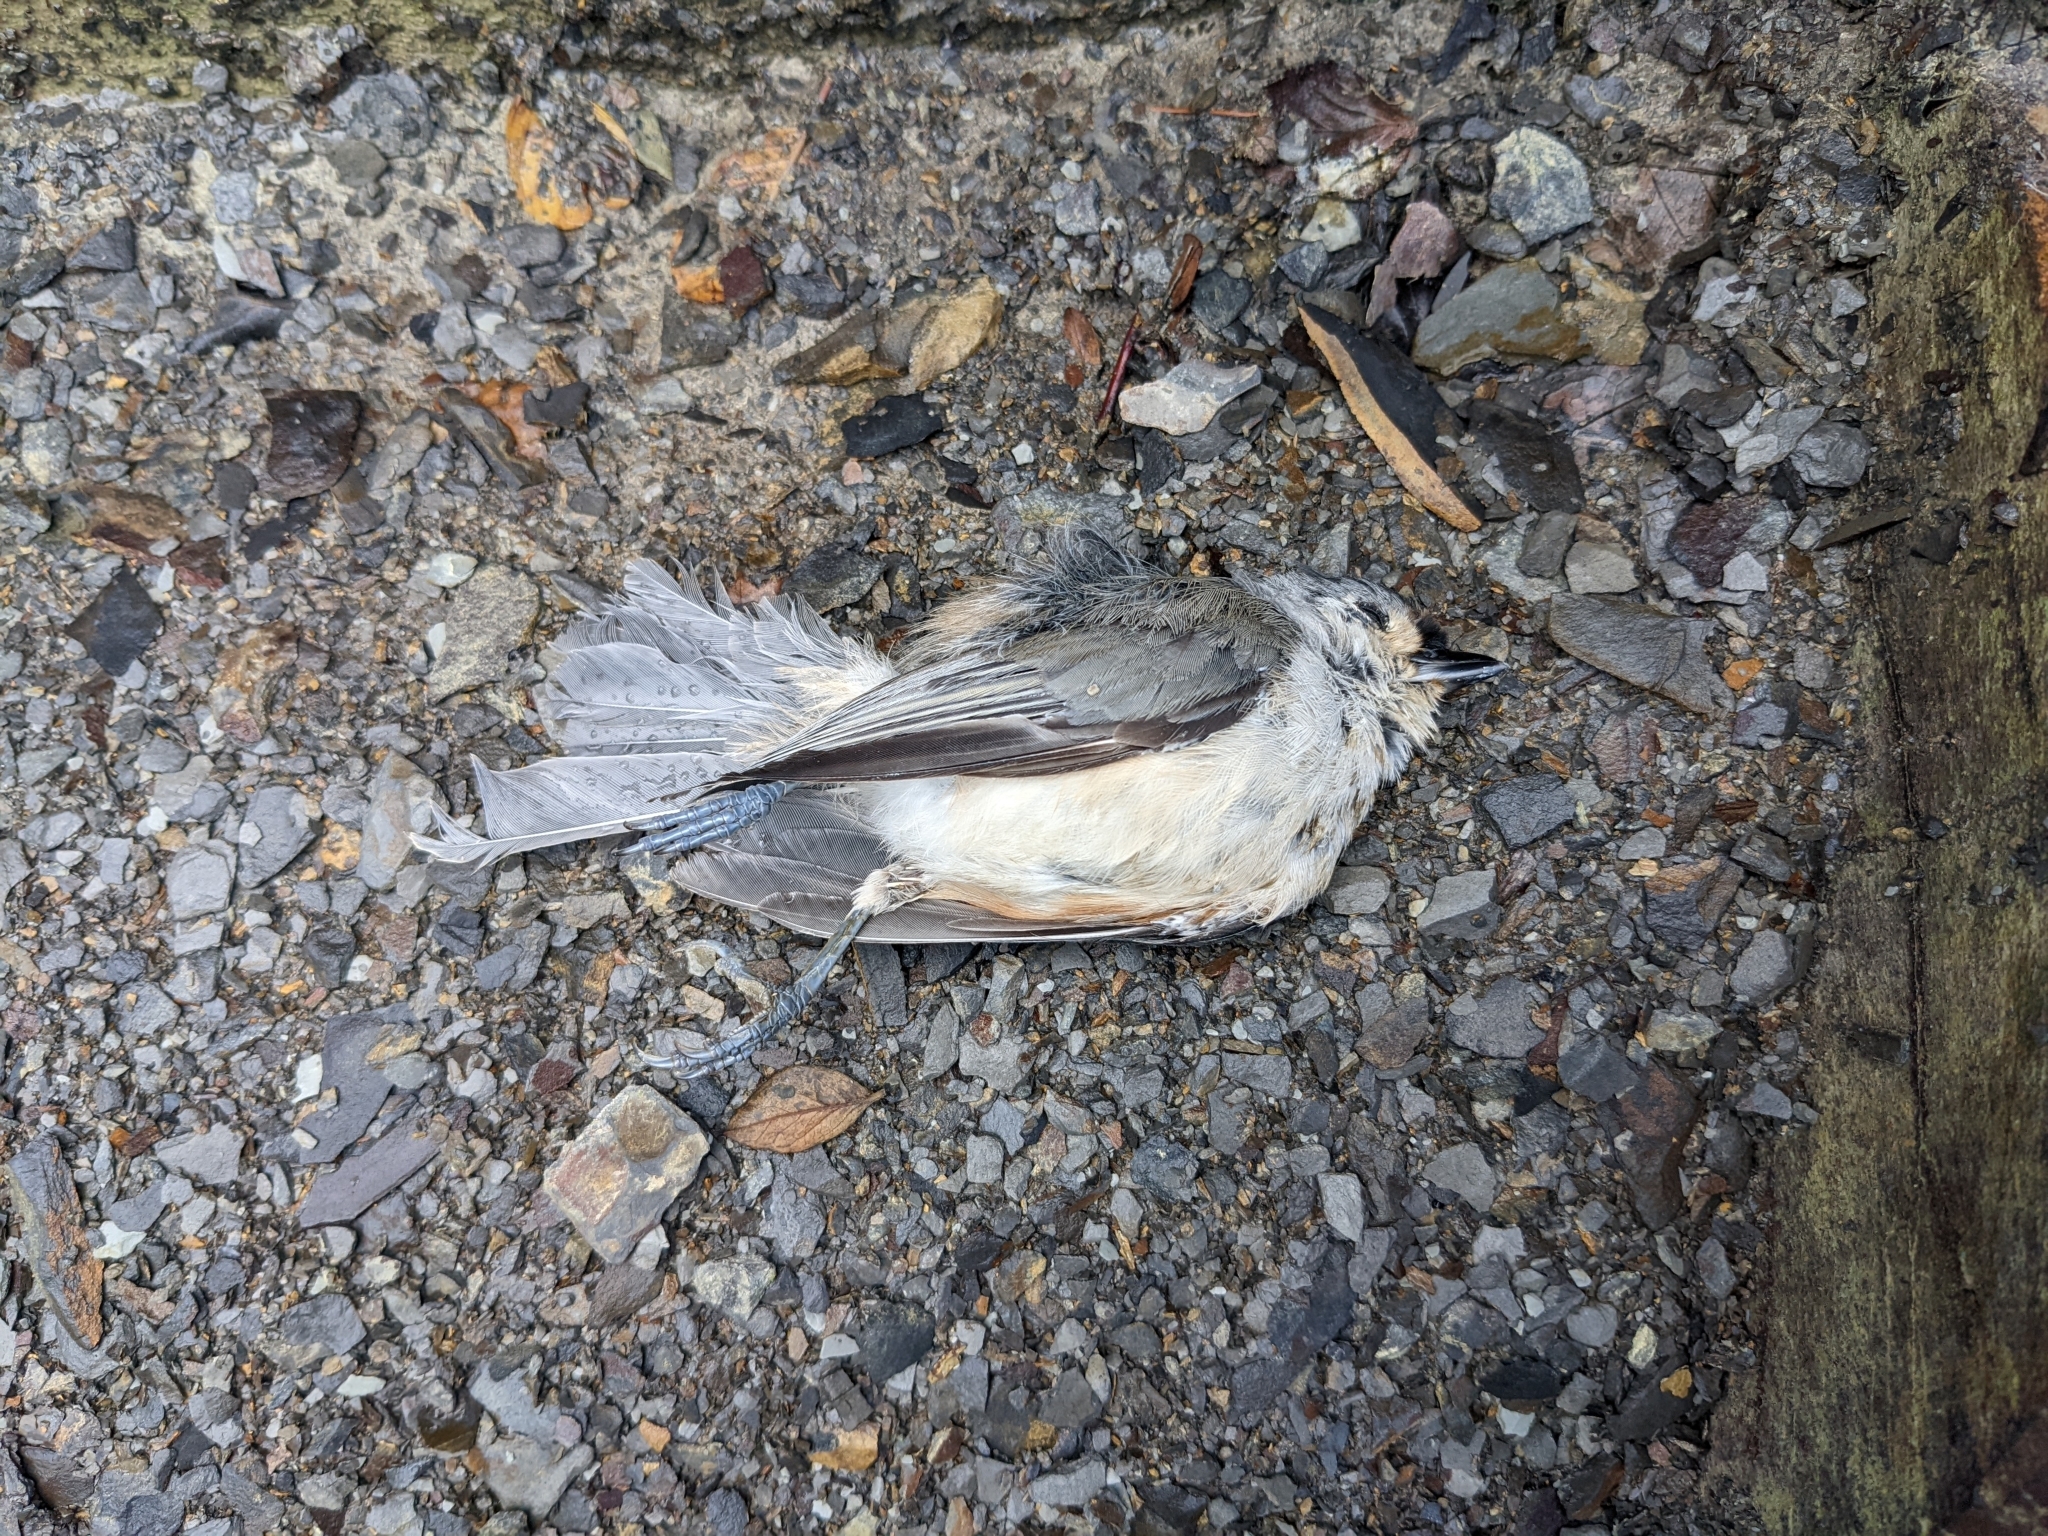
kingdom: Animalia
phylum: Chordata
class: Aves
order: Passeriformes
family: Paridae
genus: Baeolophus
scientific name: Baeolophus bicolor
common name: Tufted titmouse
